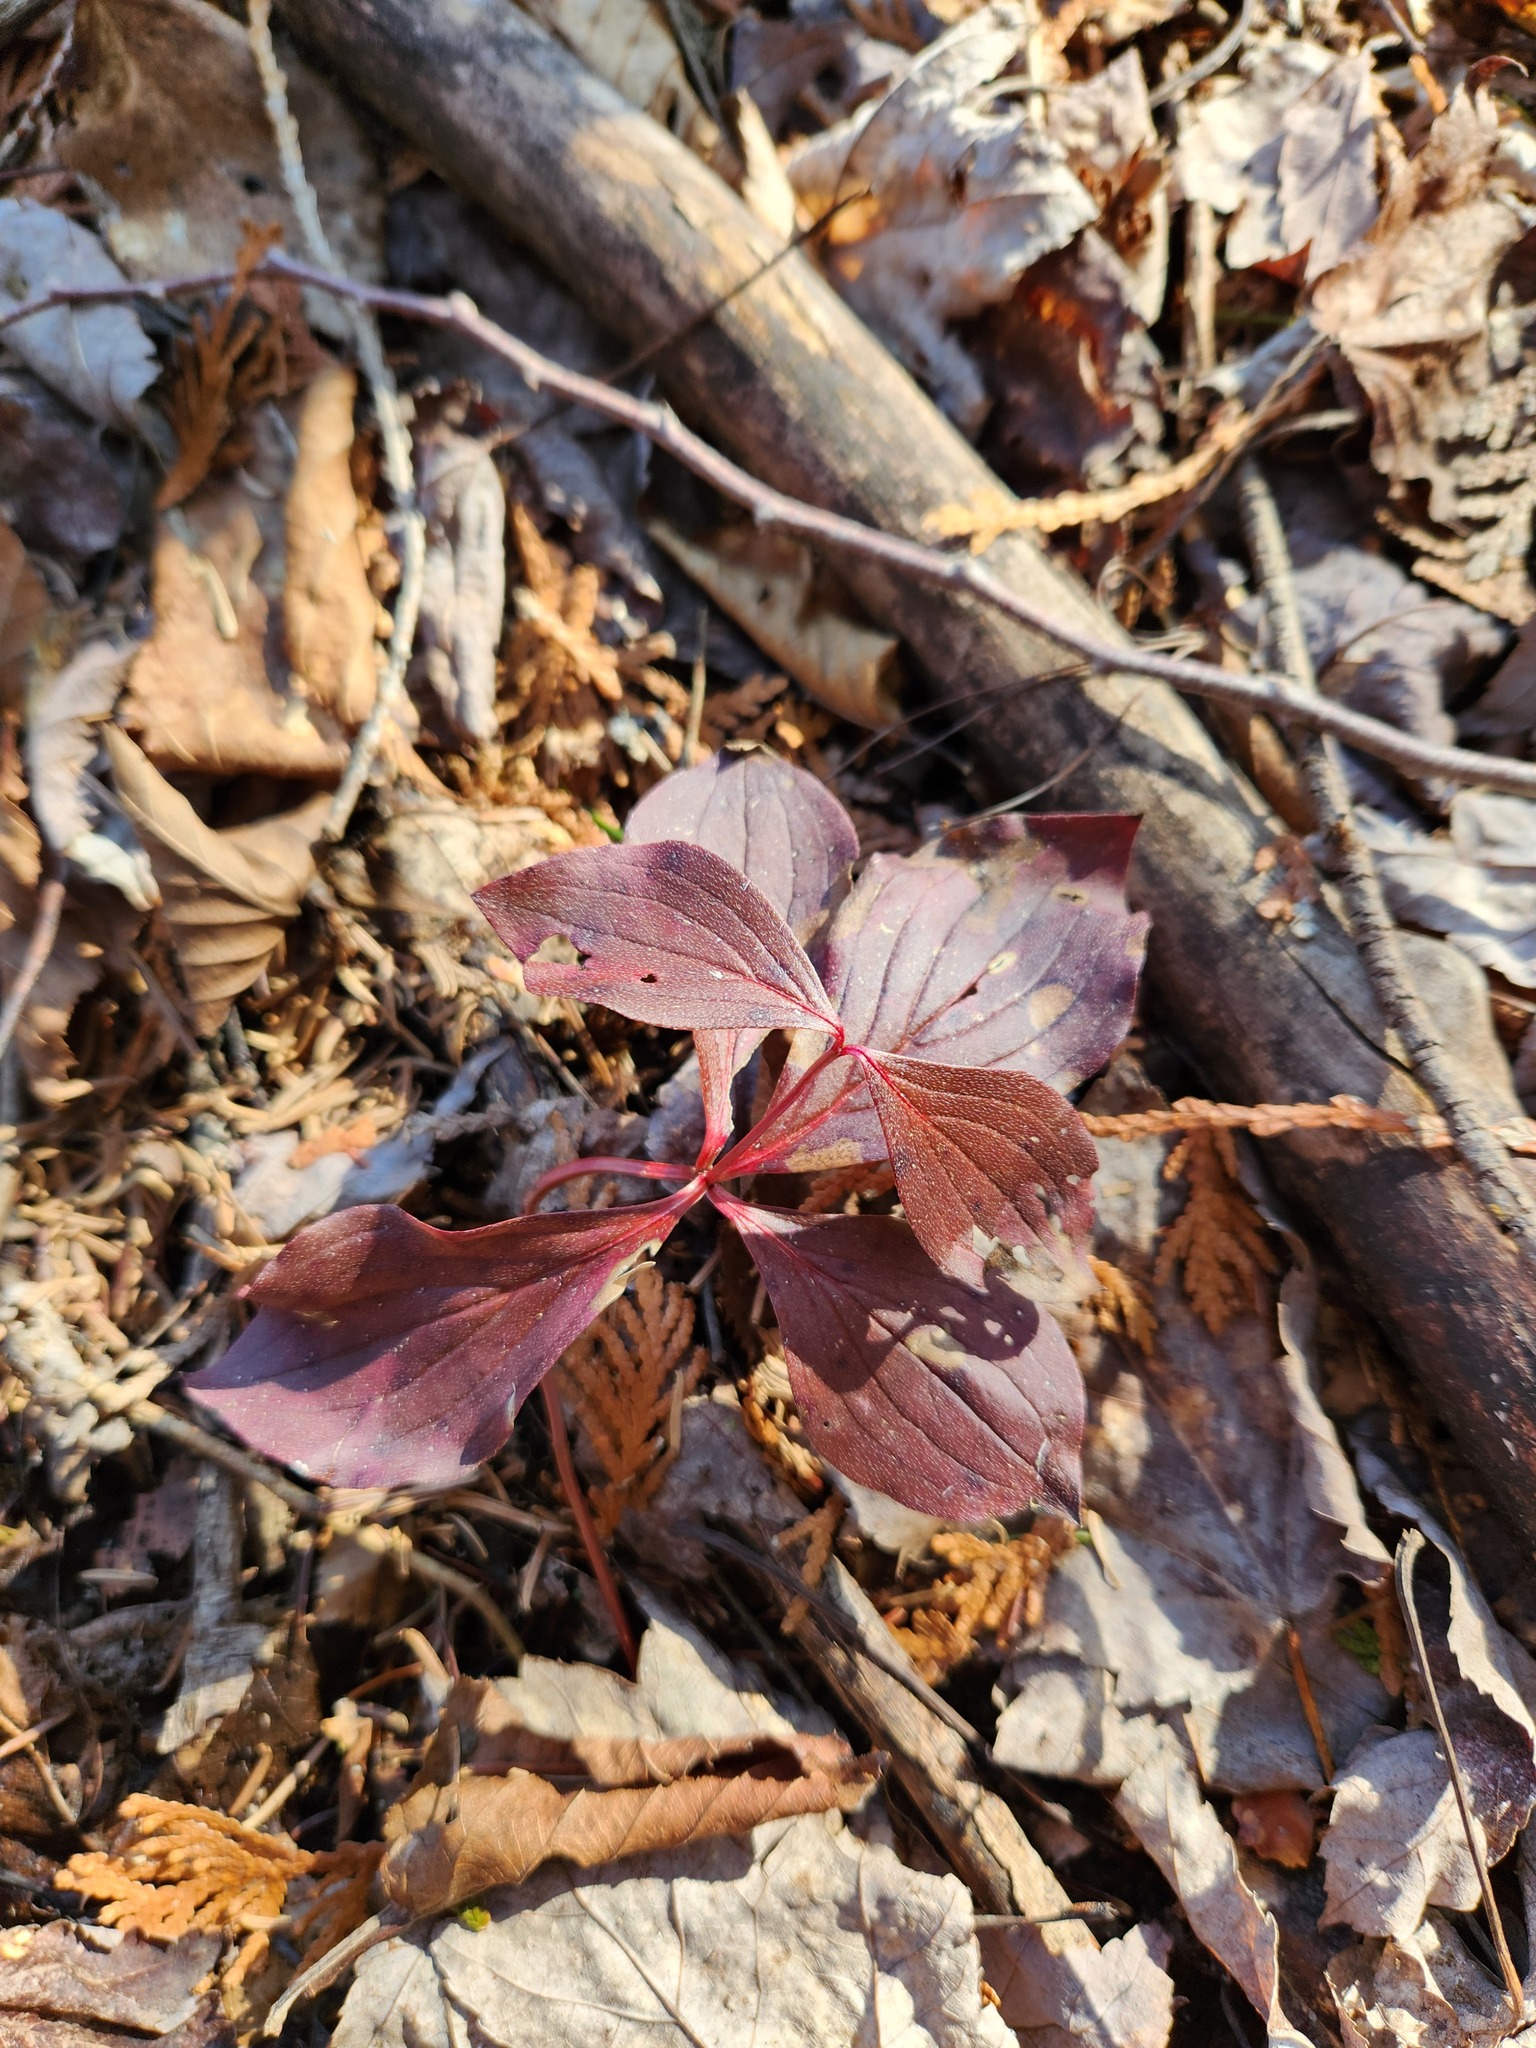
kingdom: Plantae
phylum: Tracheophyta
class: Magnoliopsida
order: Cornales
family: Cornaceae
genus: Cornus
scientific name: Cornus canadensis
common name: Creeping dogwood
